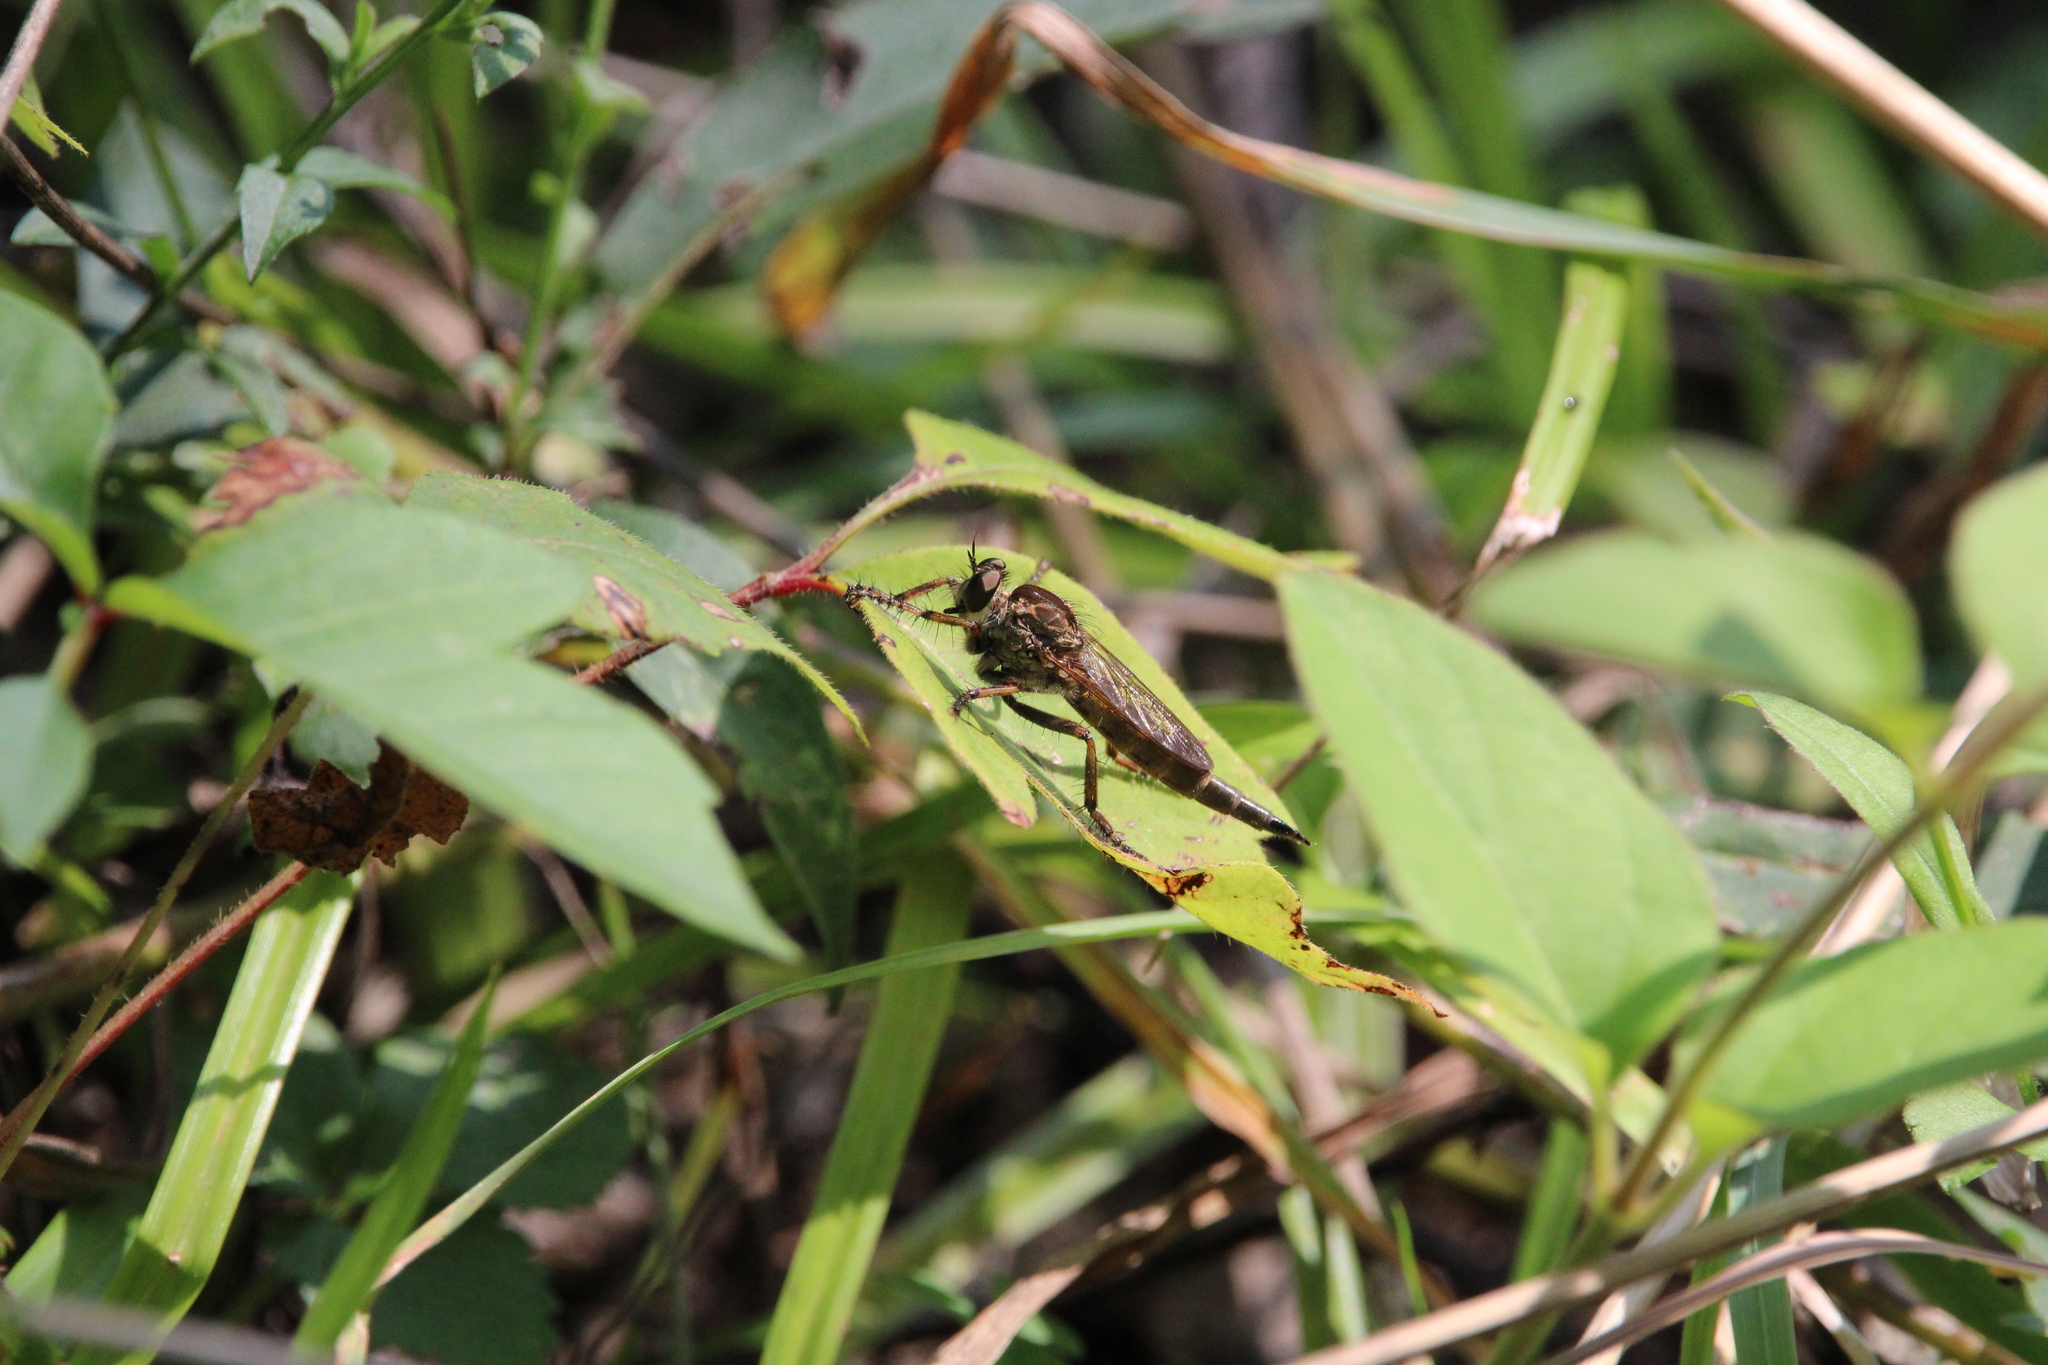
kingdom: Animalia
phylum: Arthropoda
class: Insecta
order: Diptera
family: Asilidae
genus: Machimus
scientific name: Machimus snowii
